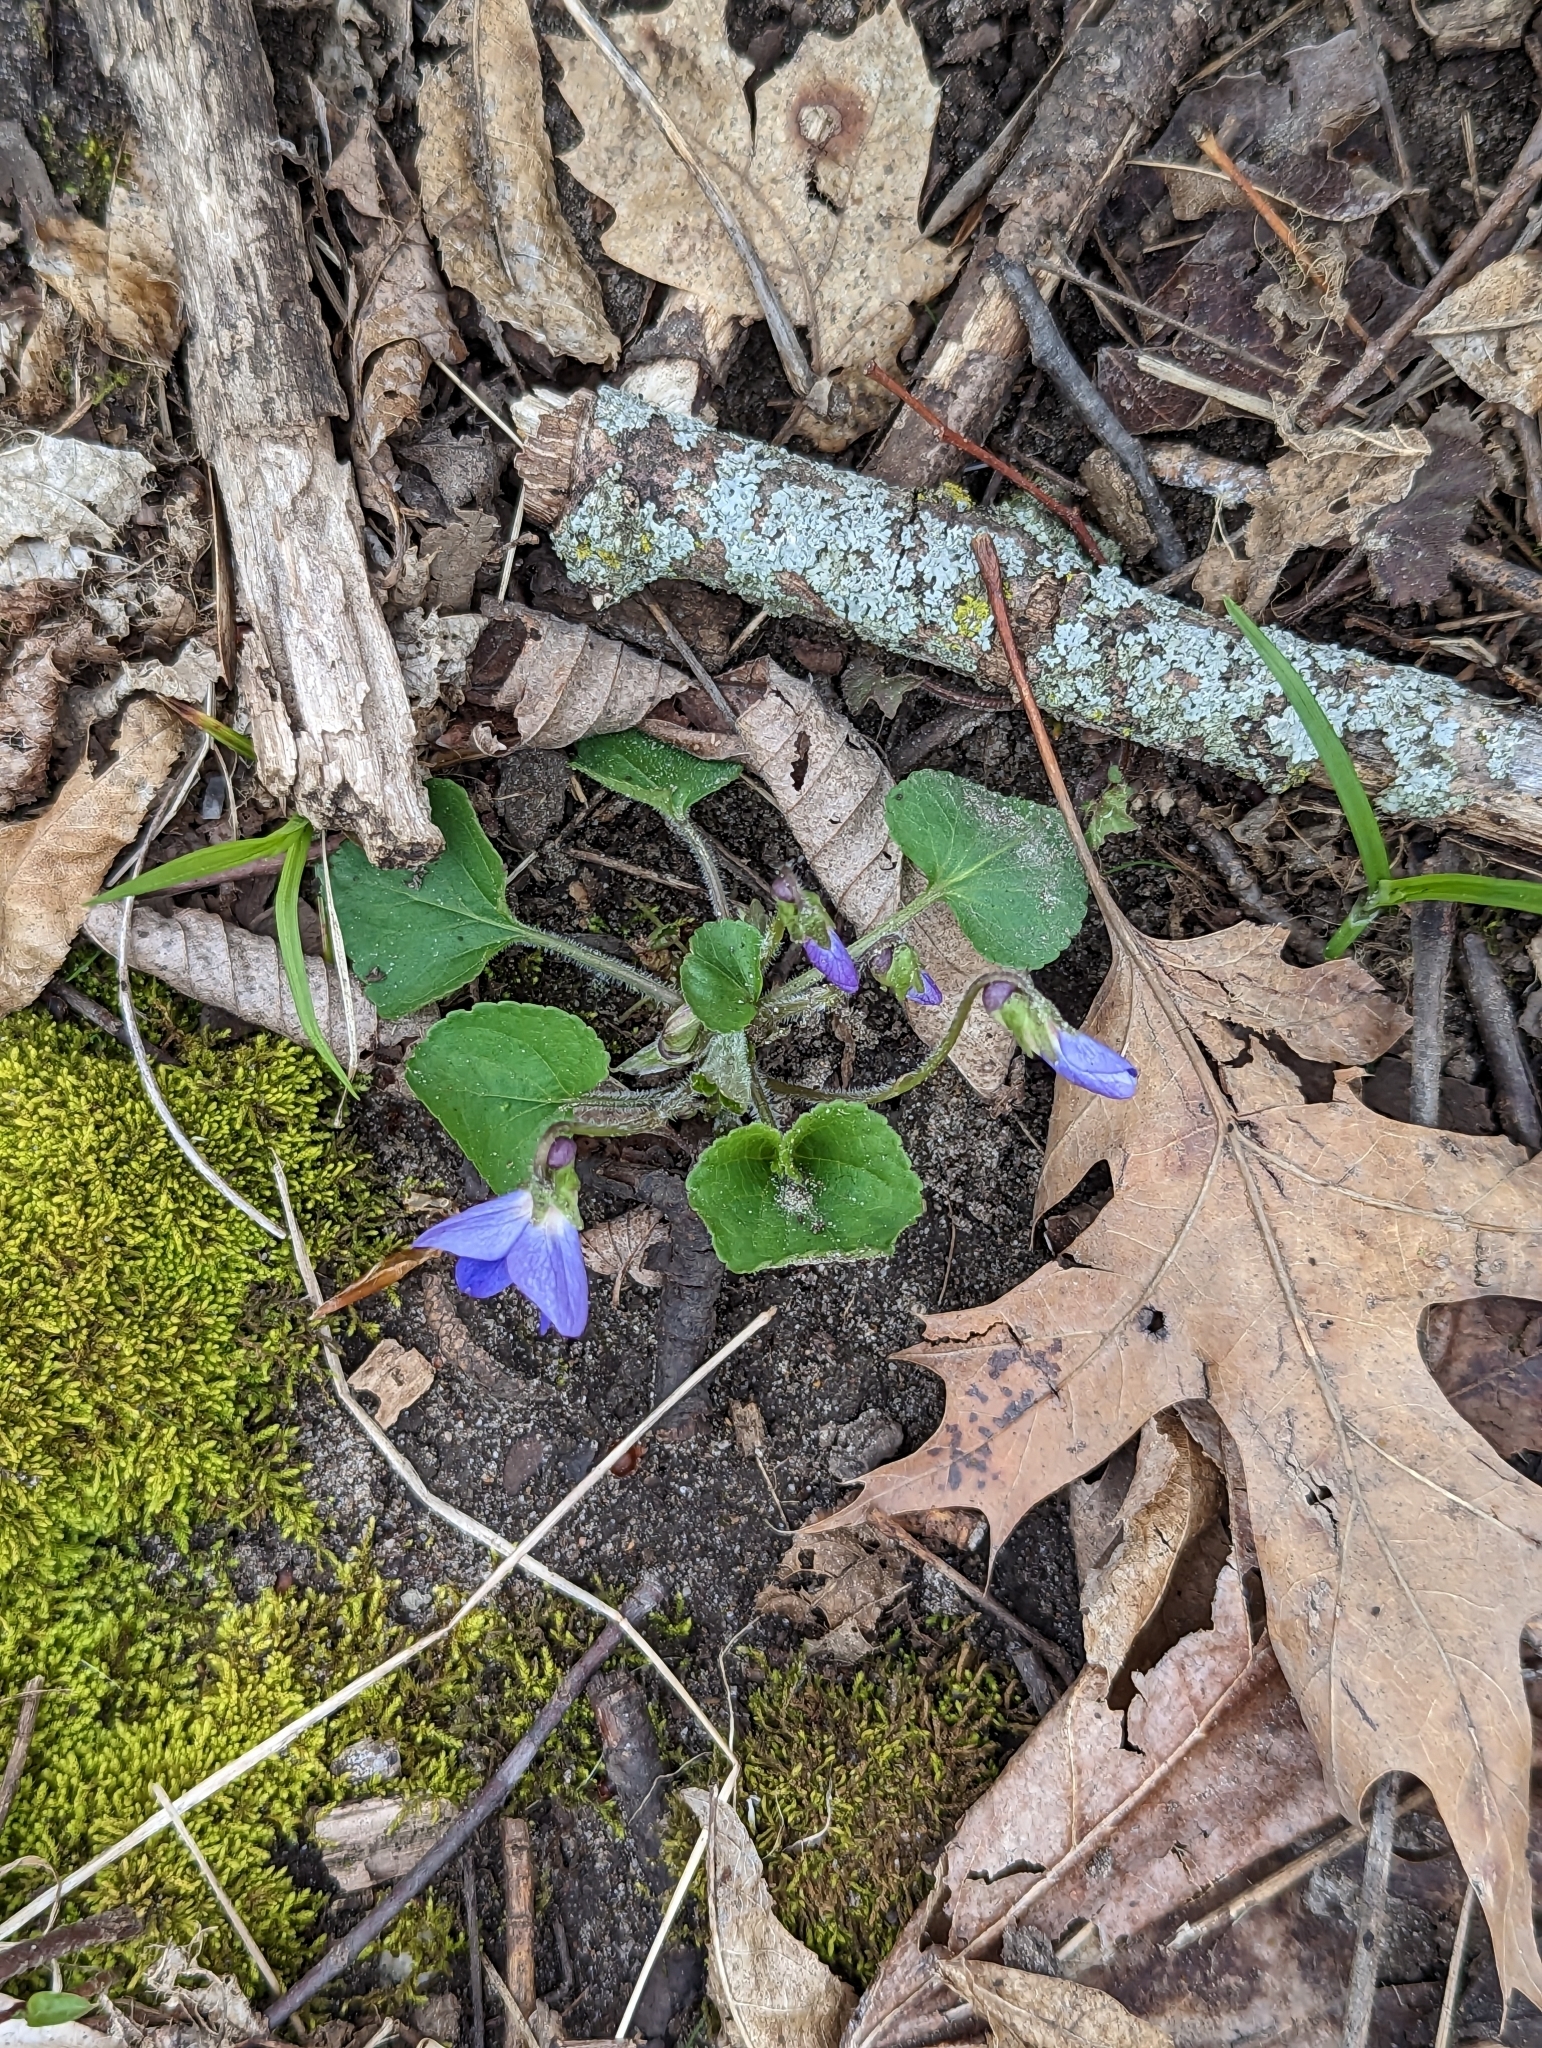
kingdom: Plantae
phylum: Tracheophyta
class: Magnoliopsida
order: Malpighiales
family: Violaceae
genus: Viola
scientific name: Viola sororia
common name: Dooryard violet
